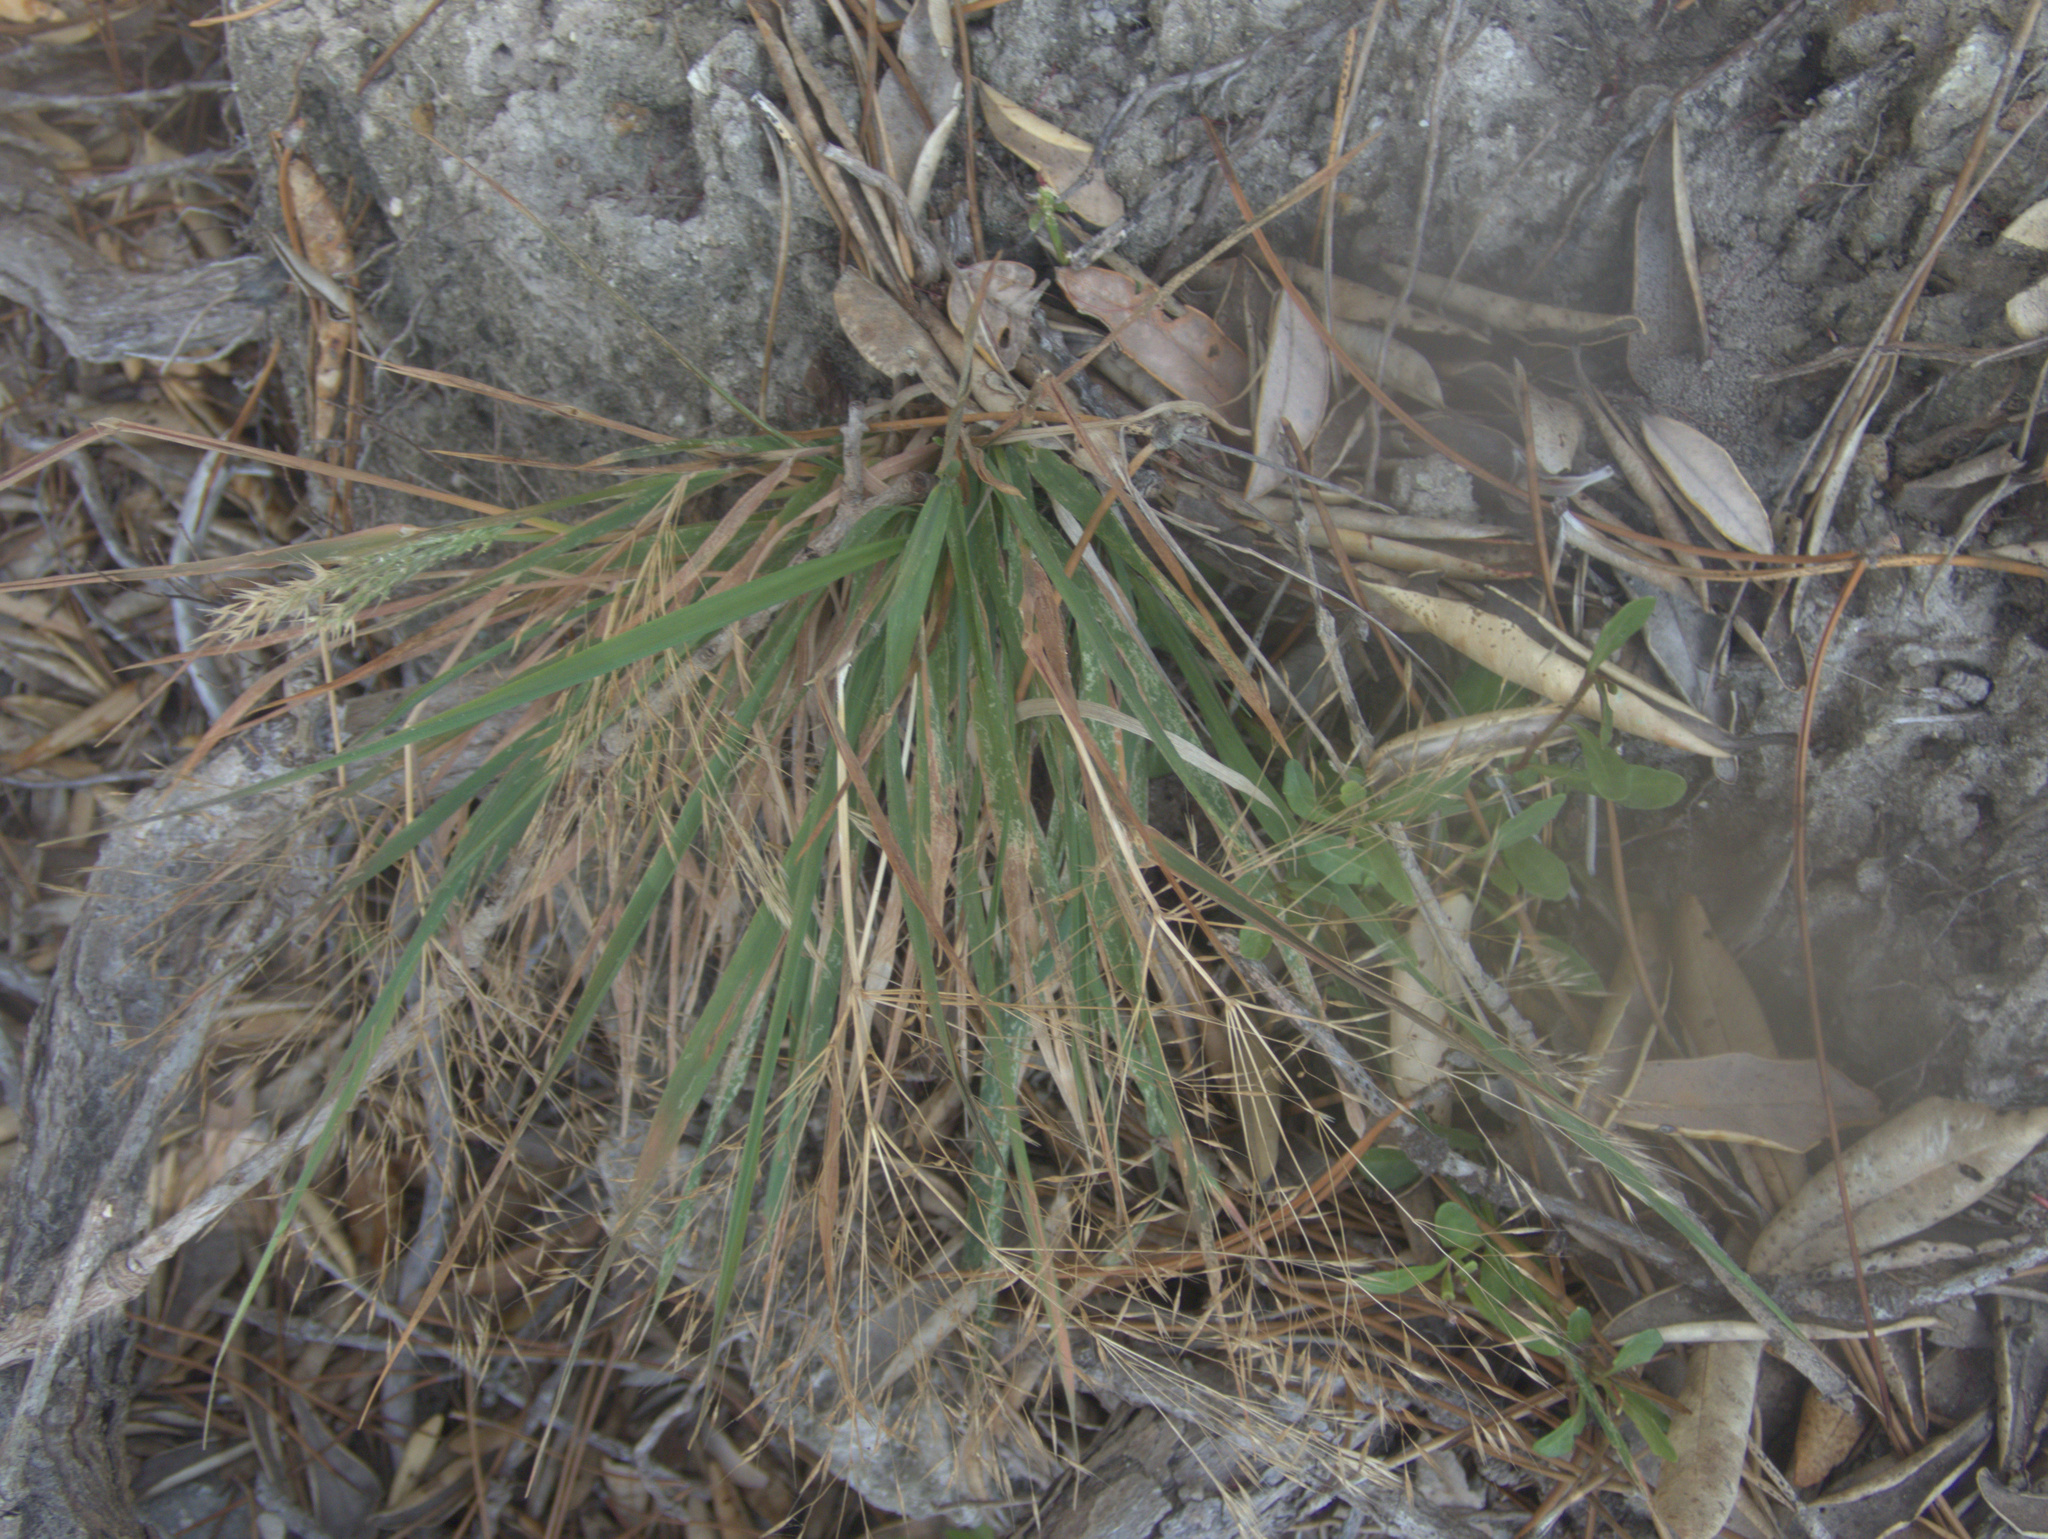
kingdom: Plantae
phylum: Tracheophyta
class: Liliopsida
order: Poales
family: Poaceae
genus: Lachnagrostis
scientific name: Lachnagrostis billardierei
